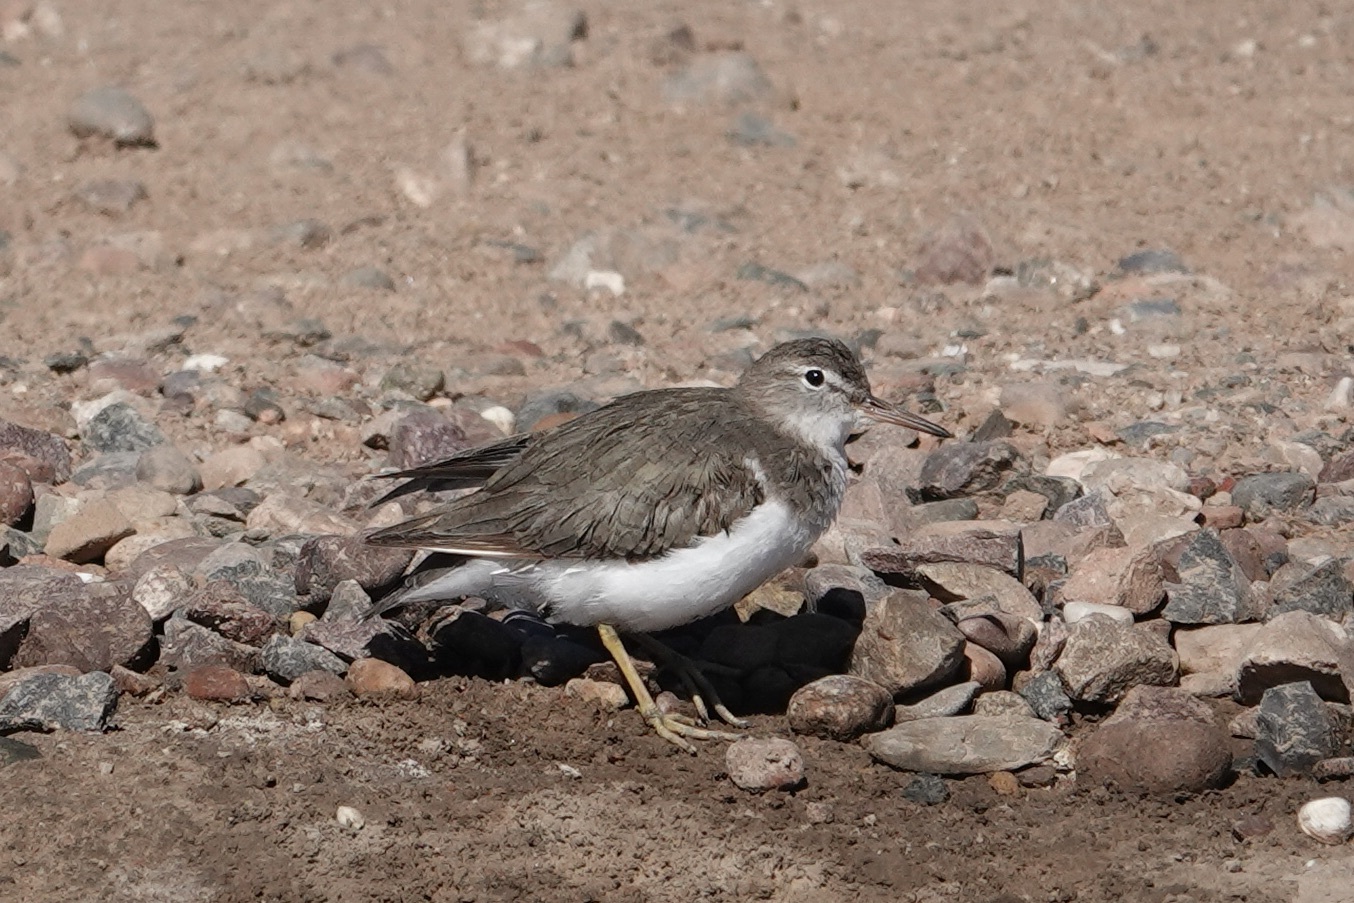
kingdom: Animalia
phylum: Chordata
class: Aves
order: Charadriiformes
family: Scolopacidae
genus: Actitis
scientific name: Actitis macularius
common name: Spotted sandpiper
